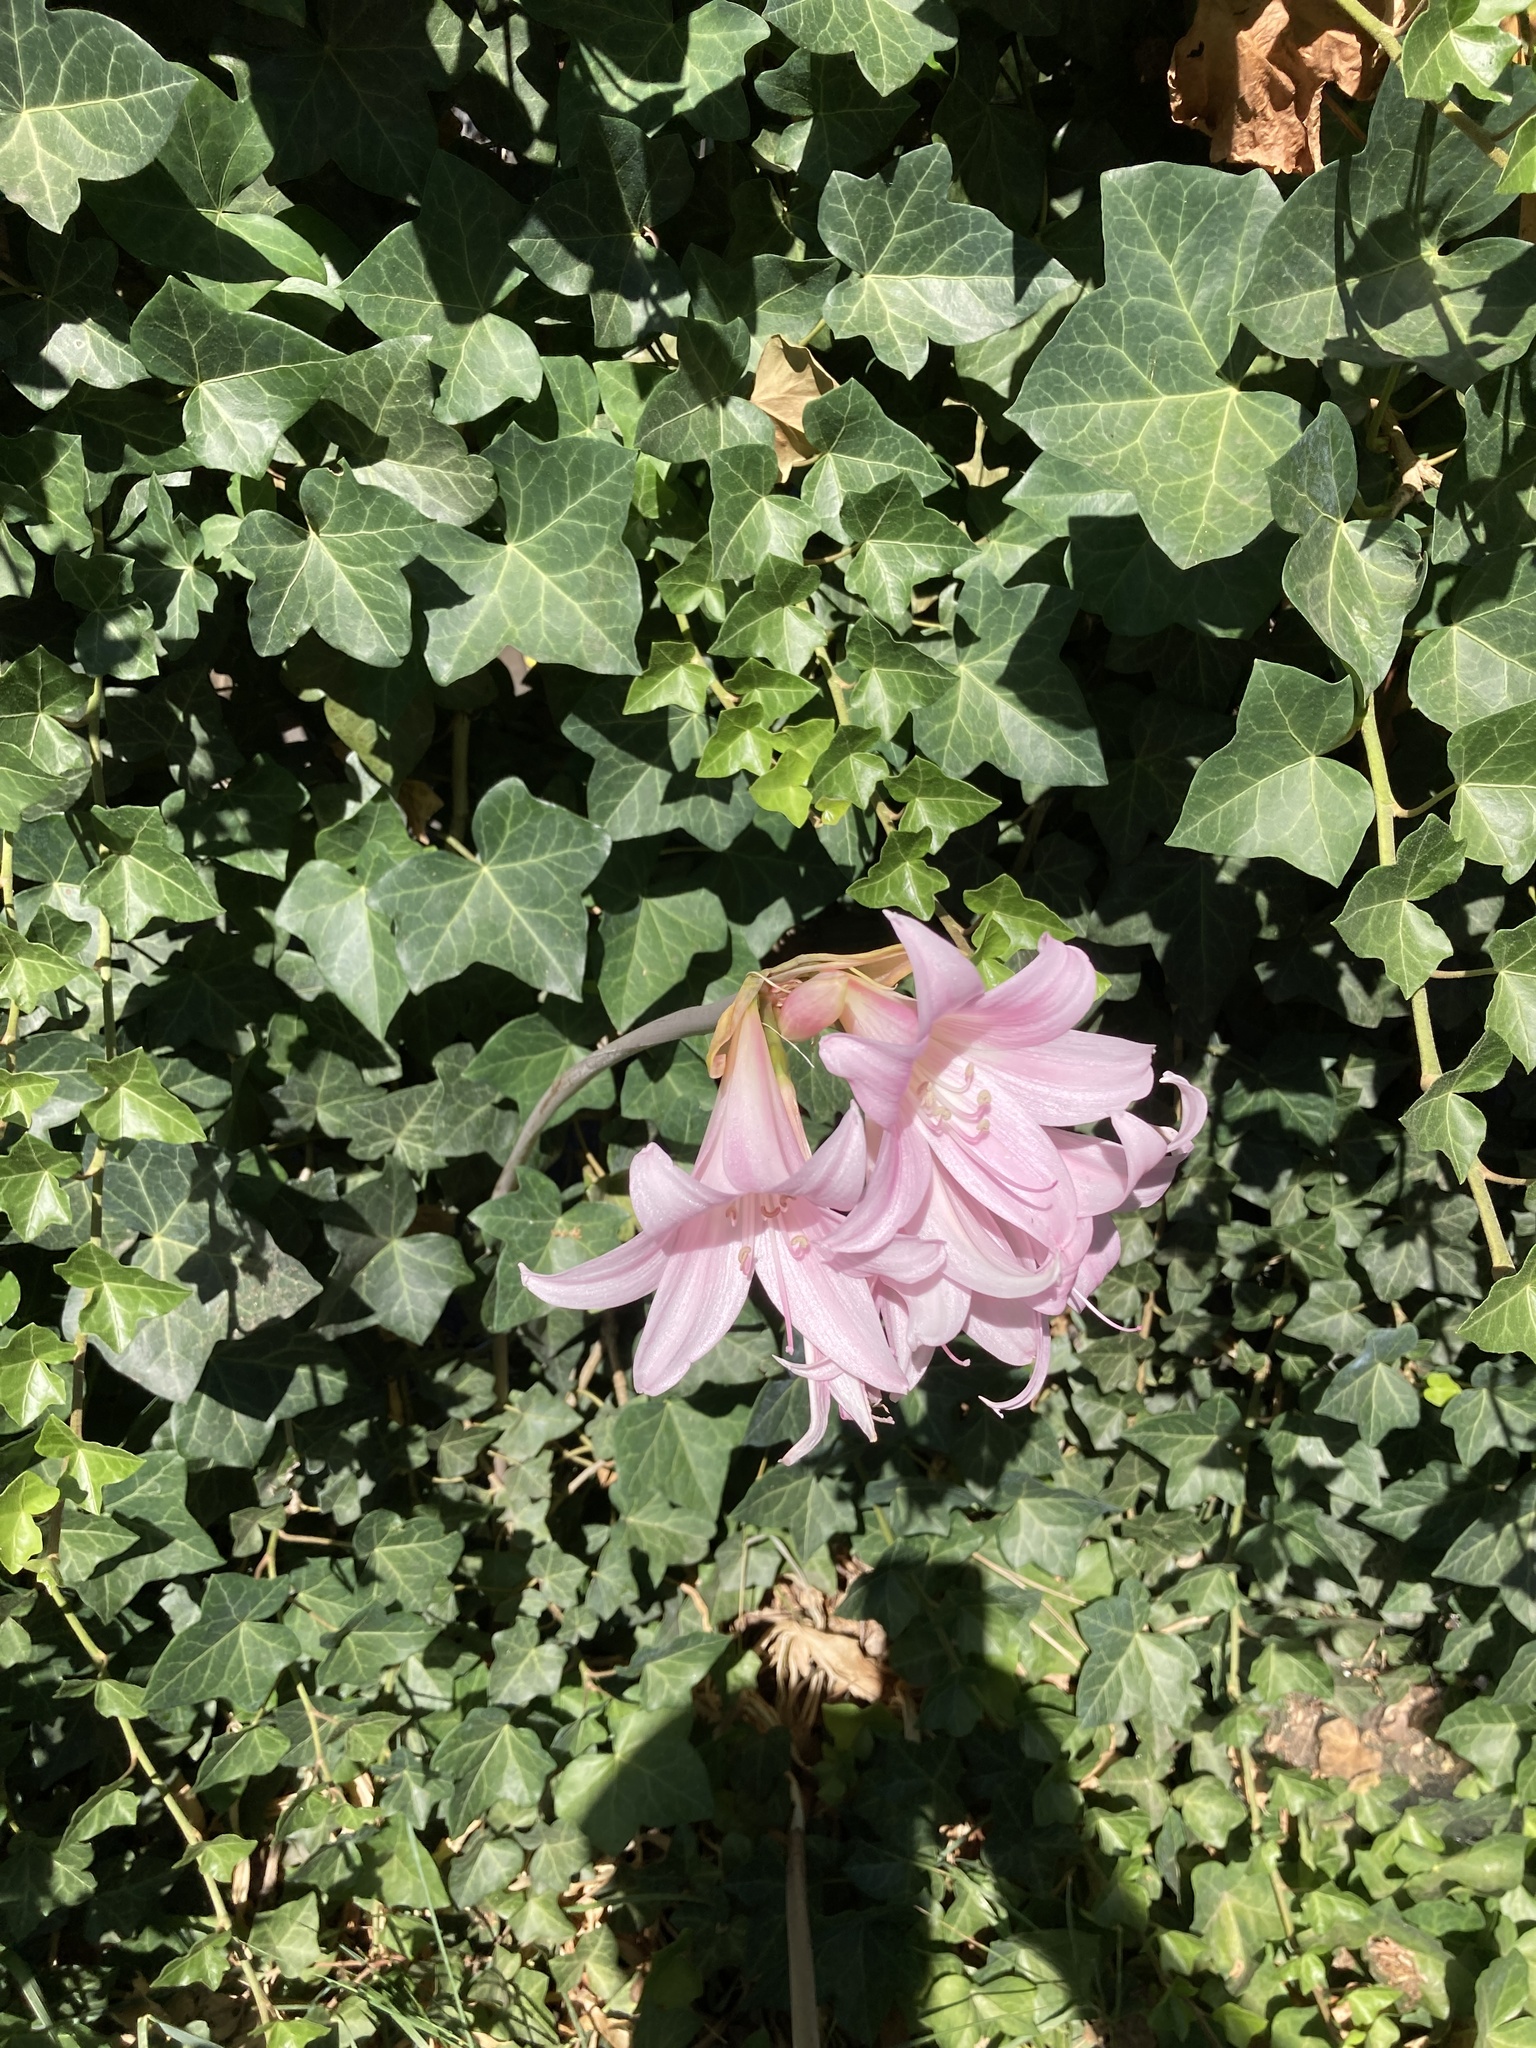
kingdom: Plantae
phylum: Tracheophyta
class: Liliopsida
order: Asparagales
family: Amaryllidaceae
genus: Amaryllis
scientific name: Amaryllis belladonna
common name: Jersey lily
